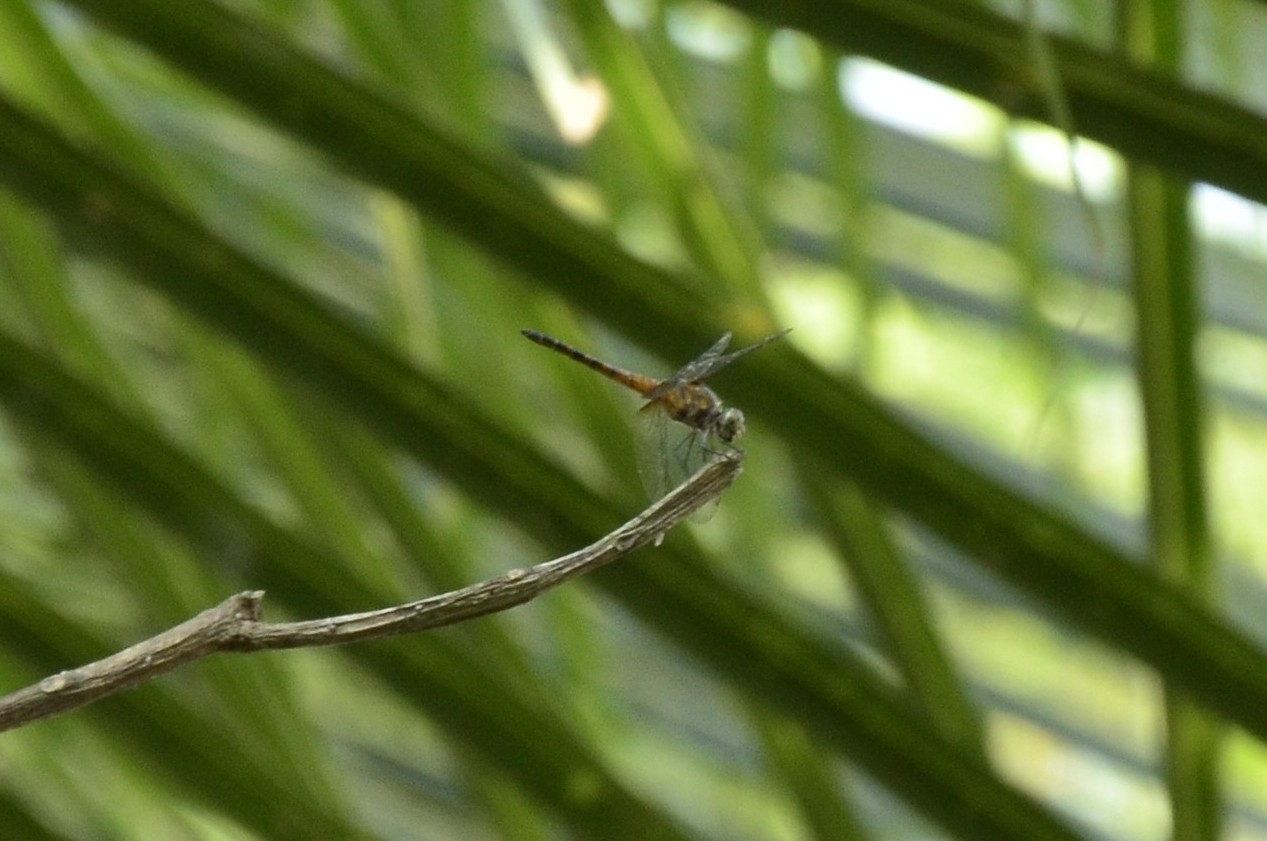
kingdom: Animalia
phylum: Arthropoda
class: Insecta
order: Odonata
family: Libellulidae
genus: Brachydiplax
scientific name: Brachydiplax chalybea
